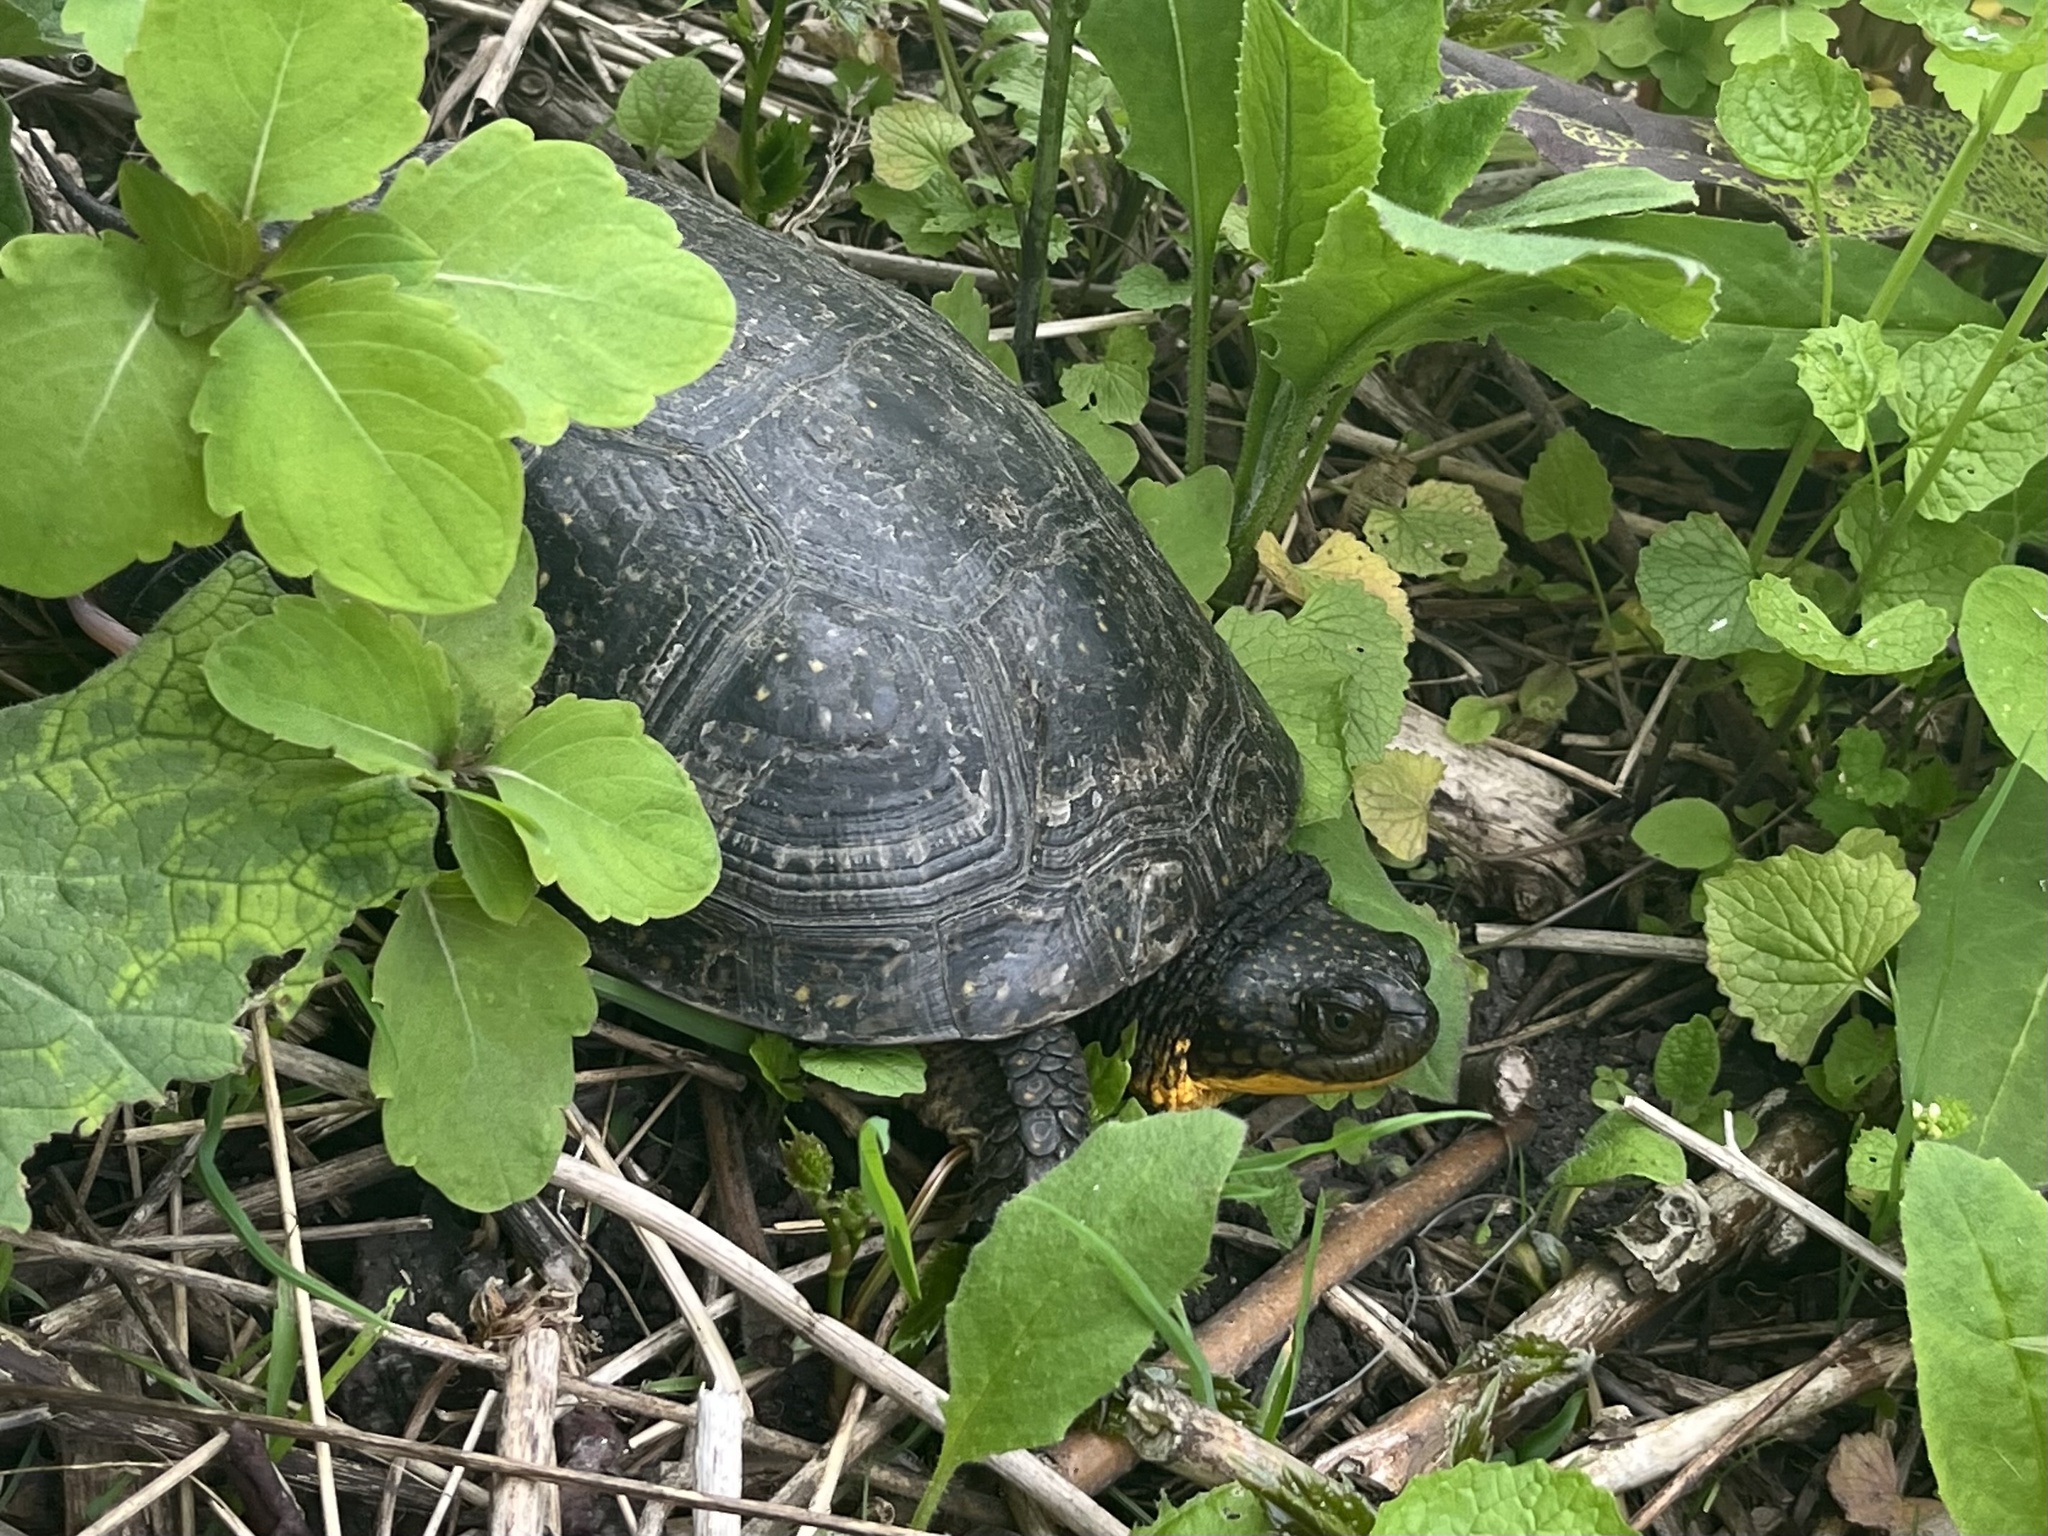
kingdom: Animalia
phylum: Chordata
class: Testudines
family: Emydidae
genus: Emys
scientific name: Emys blandingii
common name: Blanding's turtle
